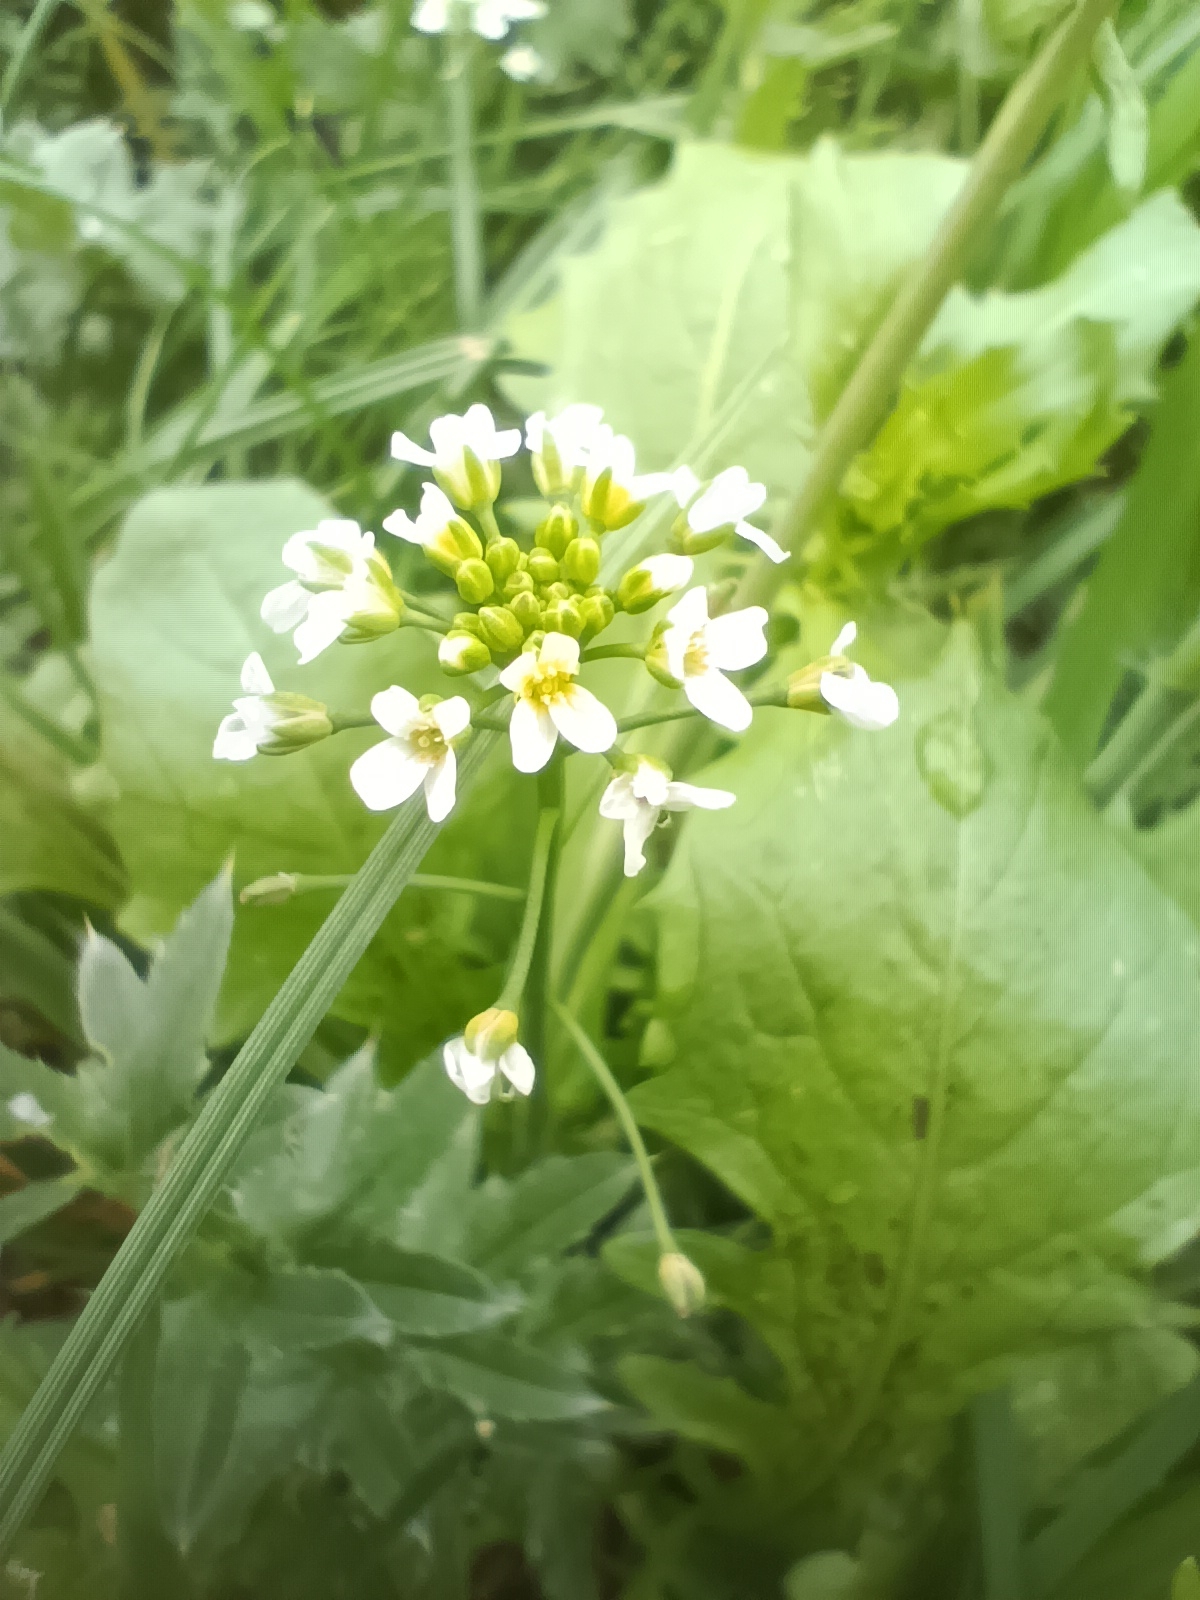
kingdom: Plantae
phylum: Tracheophyta
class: Magnoliopsida
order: Brassicales
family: Brassicaceae
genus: Calepina
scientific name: Calepina irregularis
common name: White ballmustard
